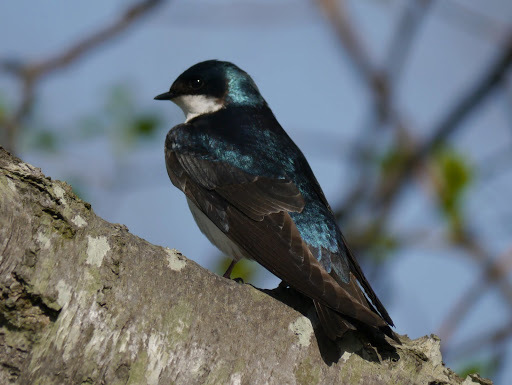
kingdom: Animalia
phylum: Chordata
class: Aves
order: Passeriformes
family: Hirundinidae
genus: Tachycineta
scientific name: Tachycineta bicolor
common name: Tree swallow
